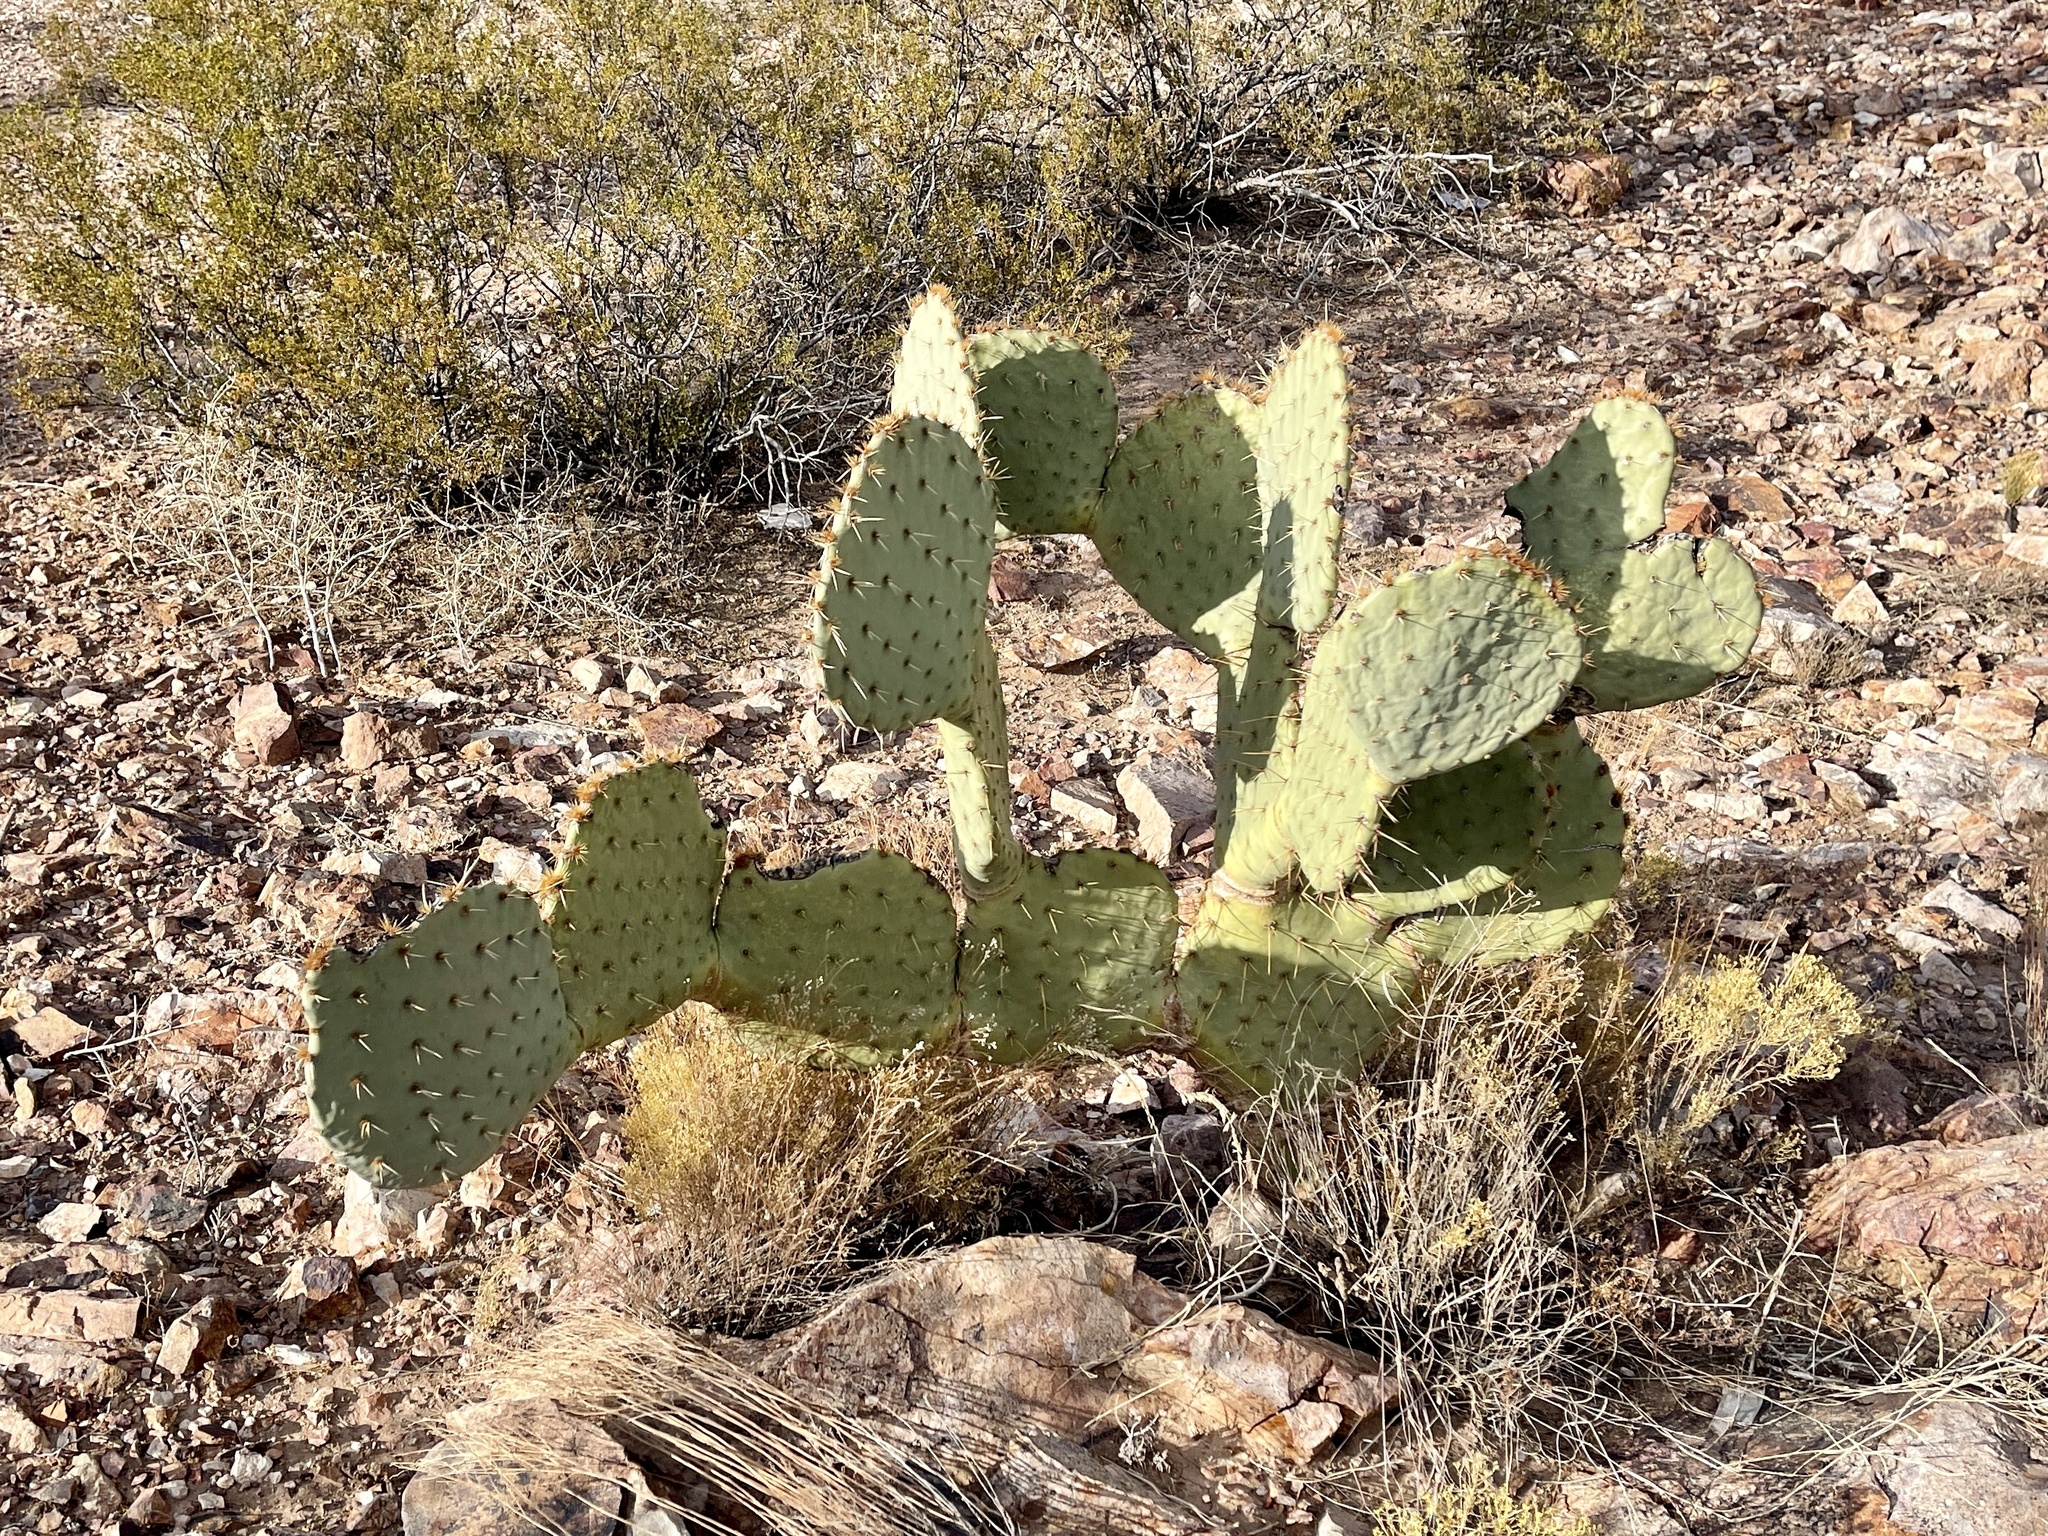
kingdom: Plantae
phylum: Tracheophyta
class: Magnoliopsida
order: Caryophyllales
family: Cactaceae
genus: Opuntia
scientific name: Opuntia engelmannii
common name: Cactus-apple
